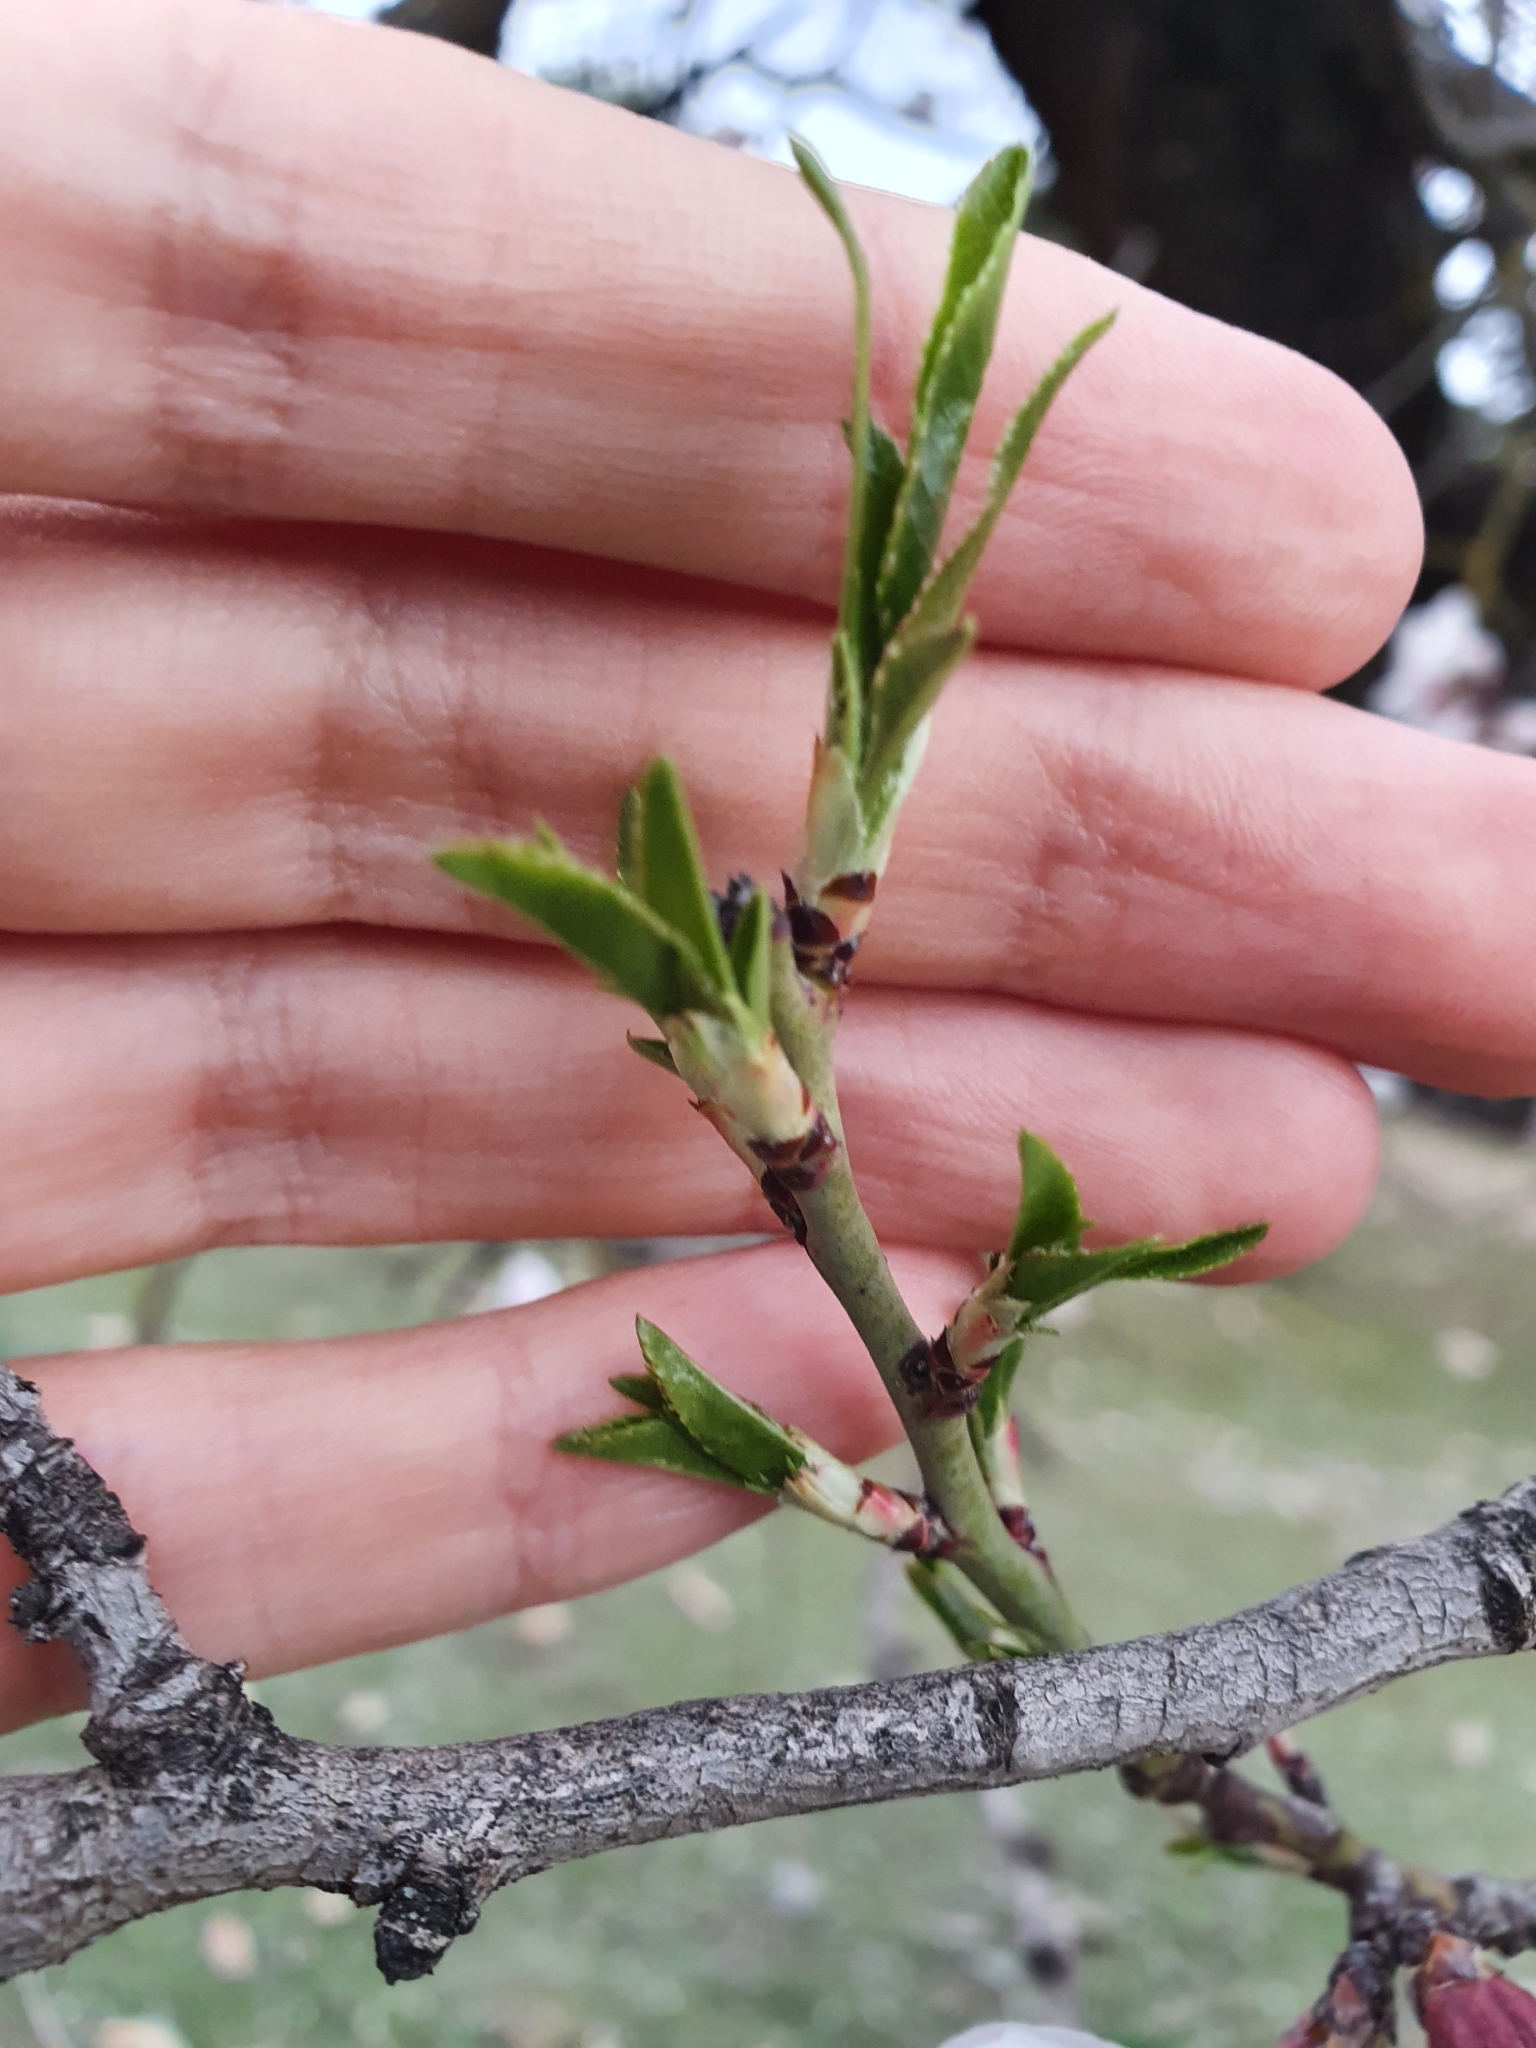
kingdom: Plantae
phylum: Tracheophyta
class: Magnoliopsida
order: Rosales
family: Rosaceae
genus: Prunus
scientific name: Prunus amygdalus
